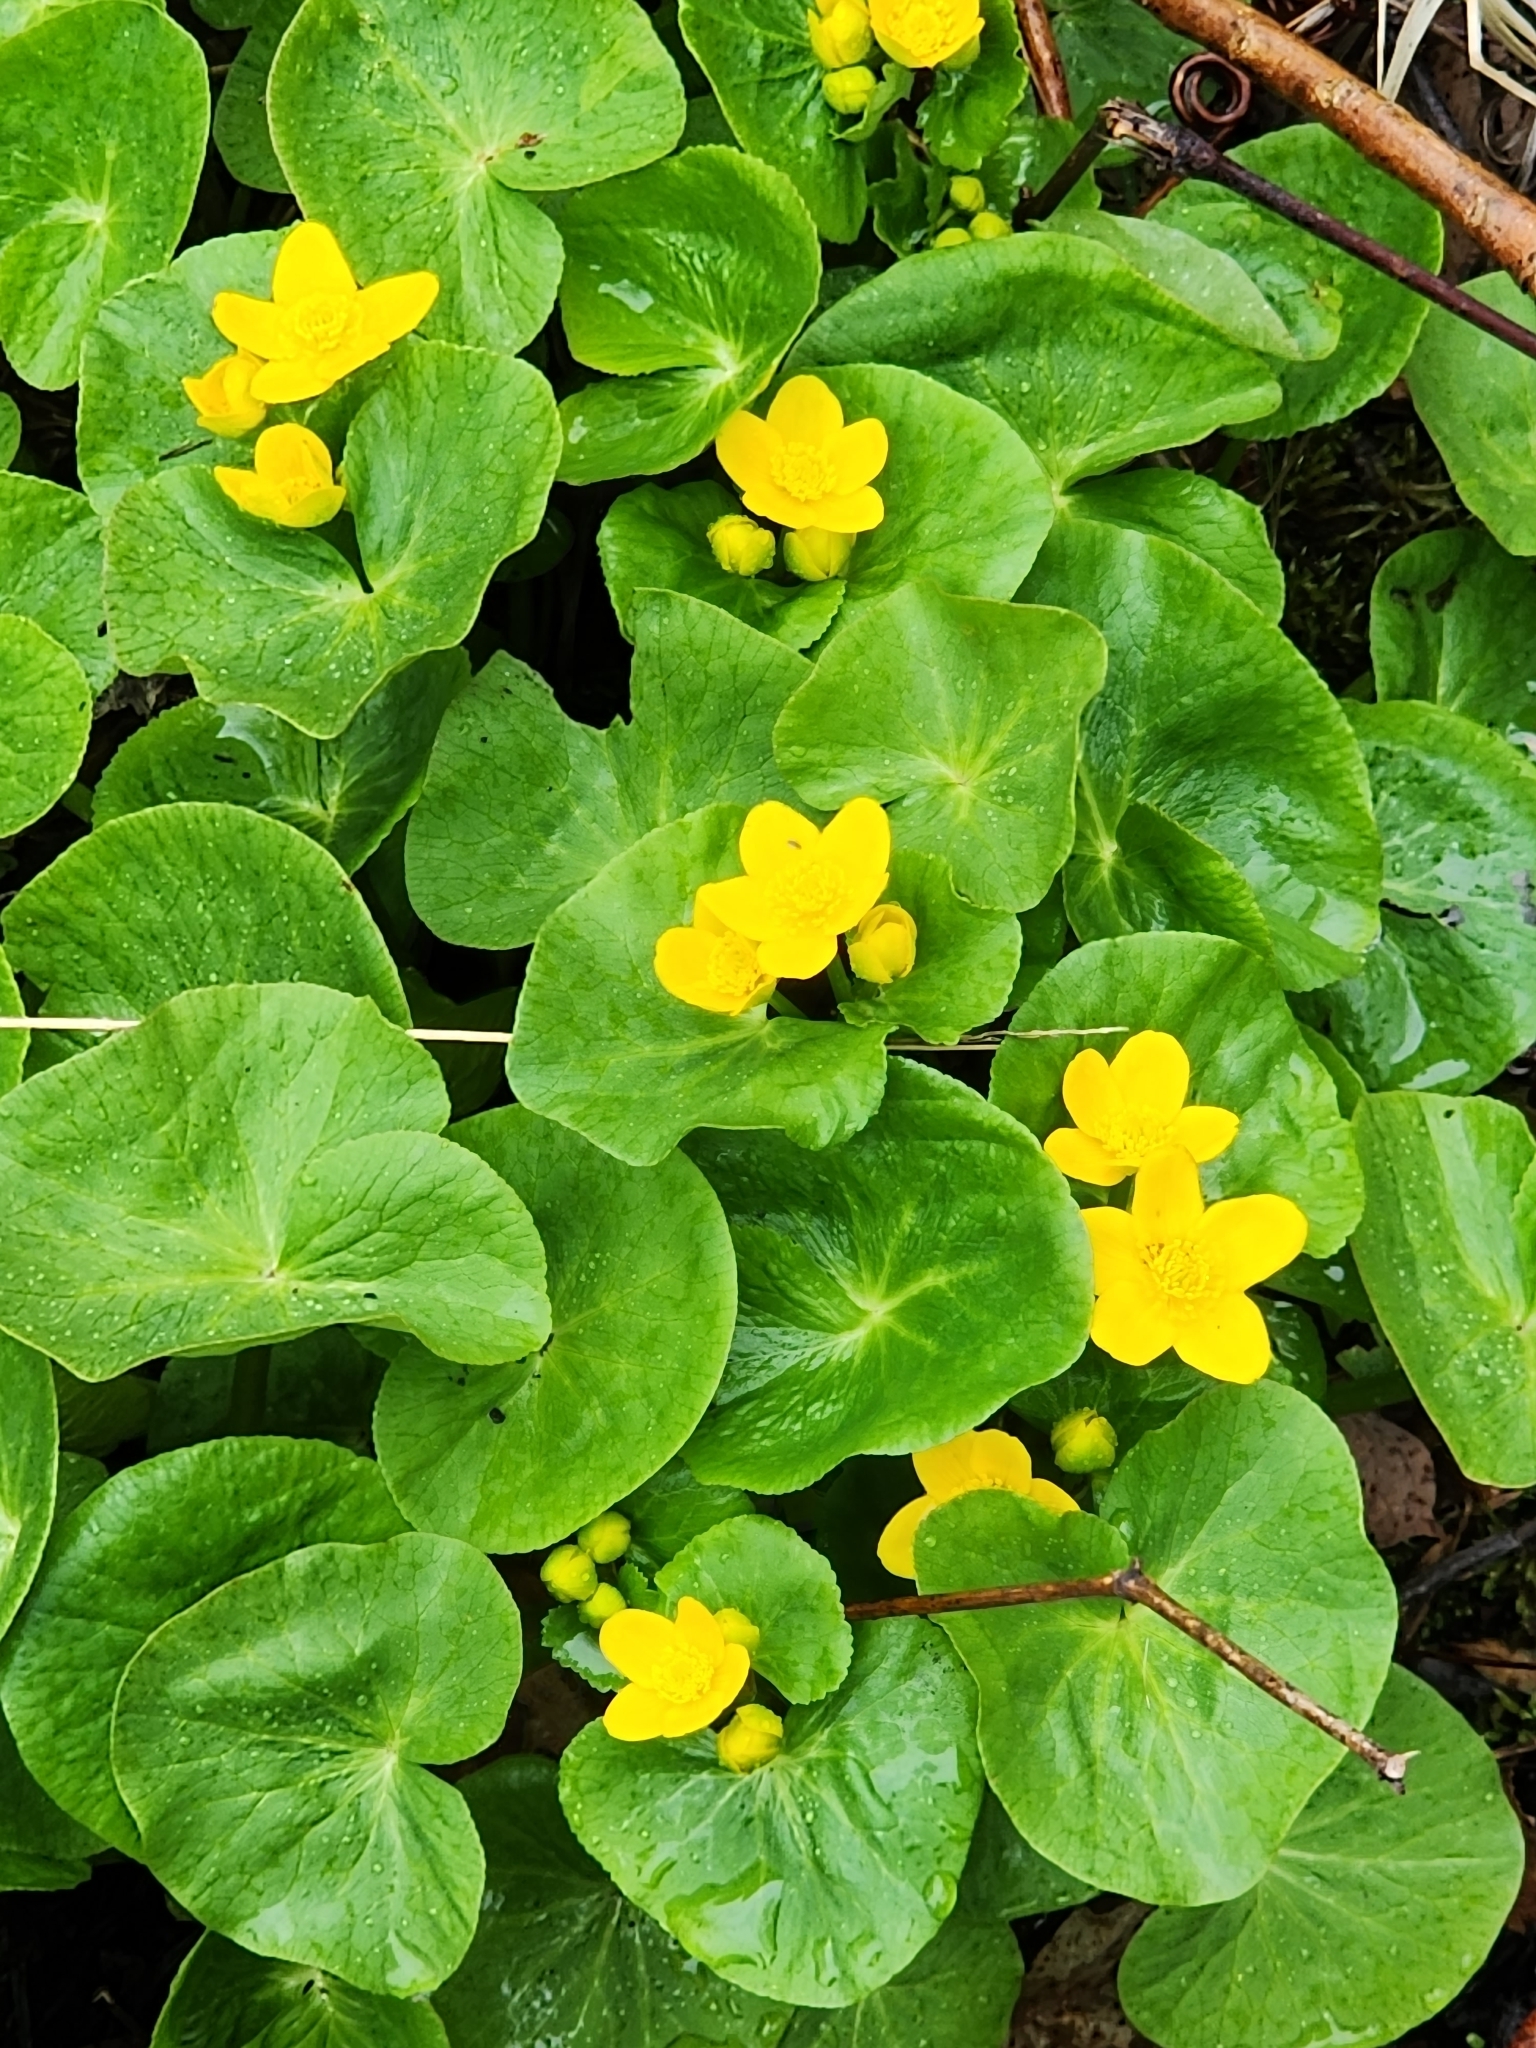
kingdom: Plantae
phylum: Tracheophyta
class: Magnoliopsida
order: Ranunculales
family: Ranunculaceae
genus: Caltha
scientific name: Caltha palustris
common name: Marsh marigold
